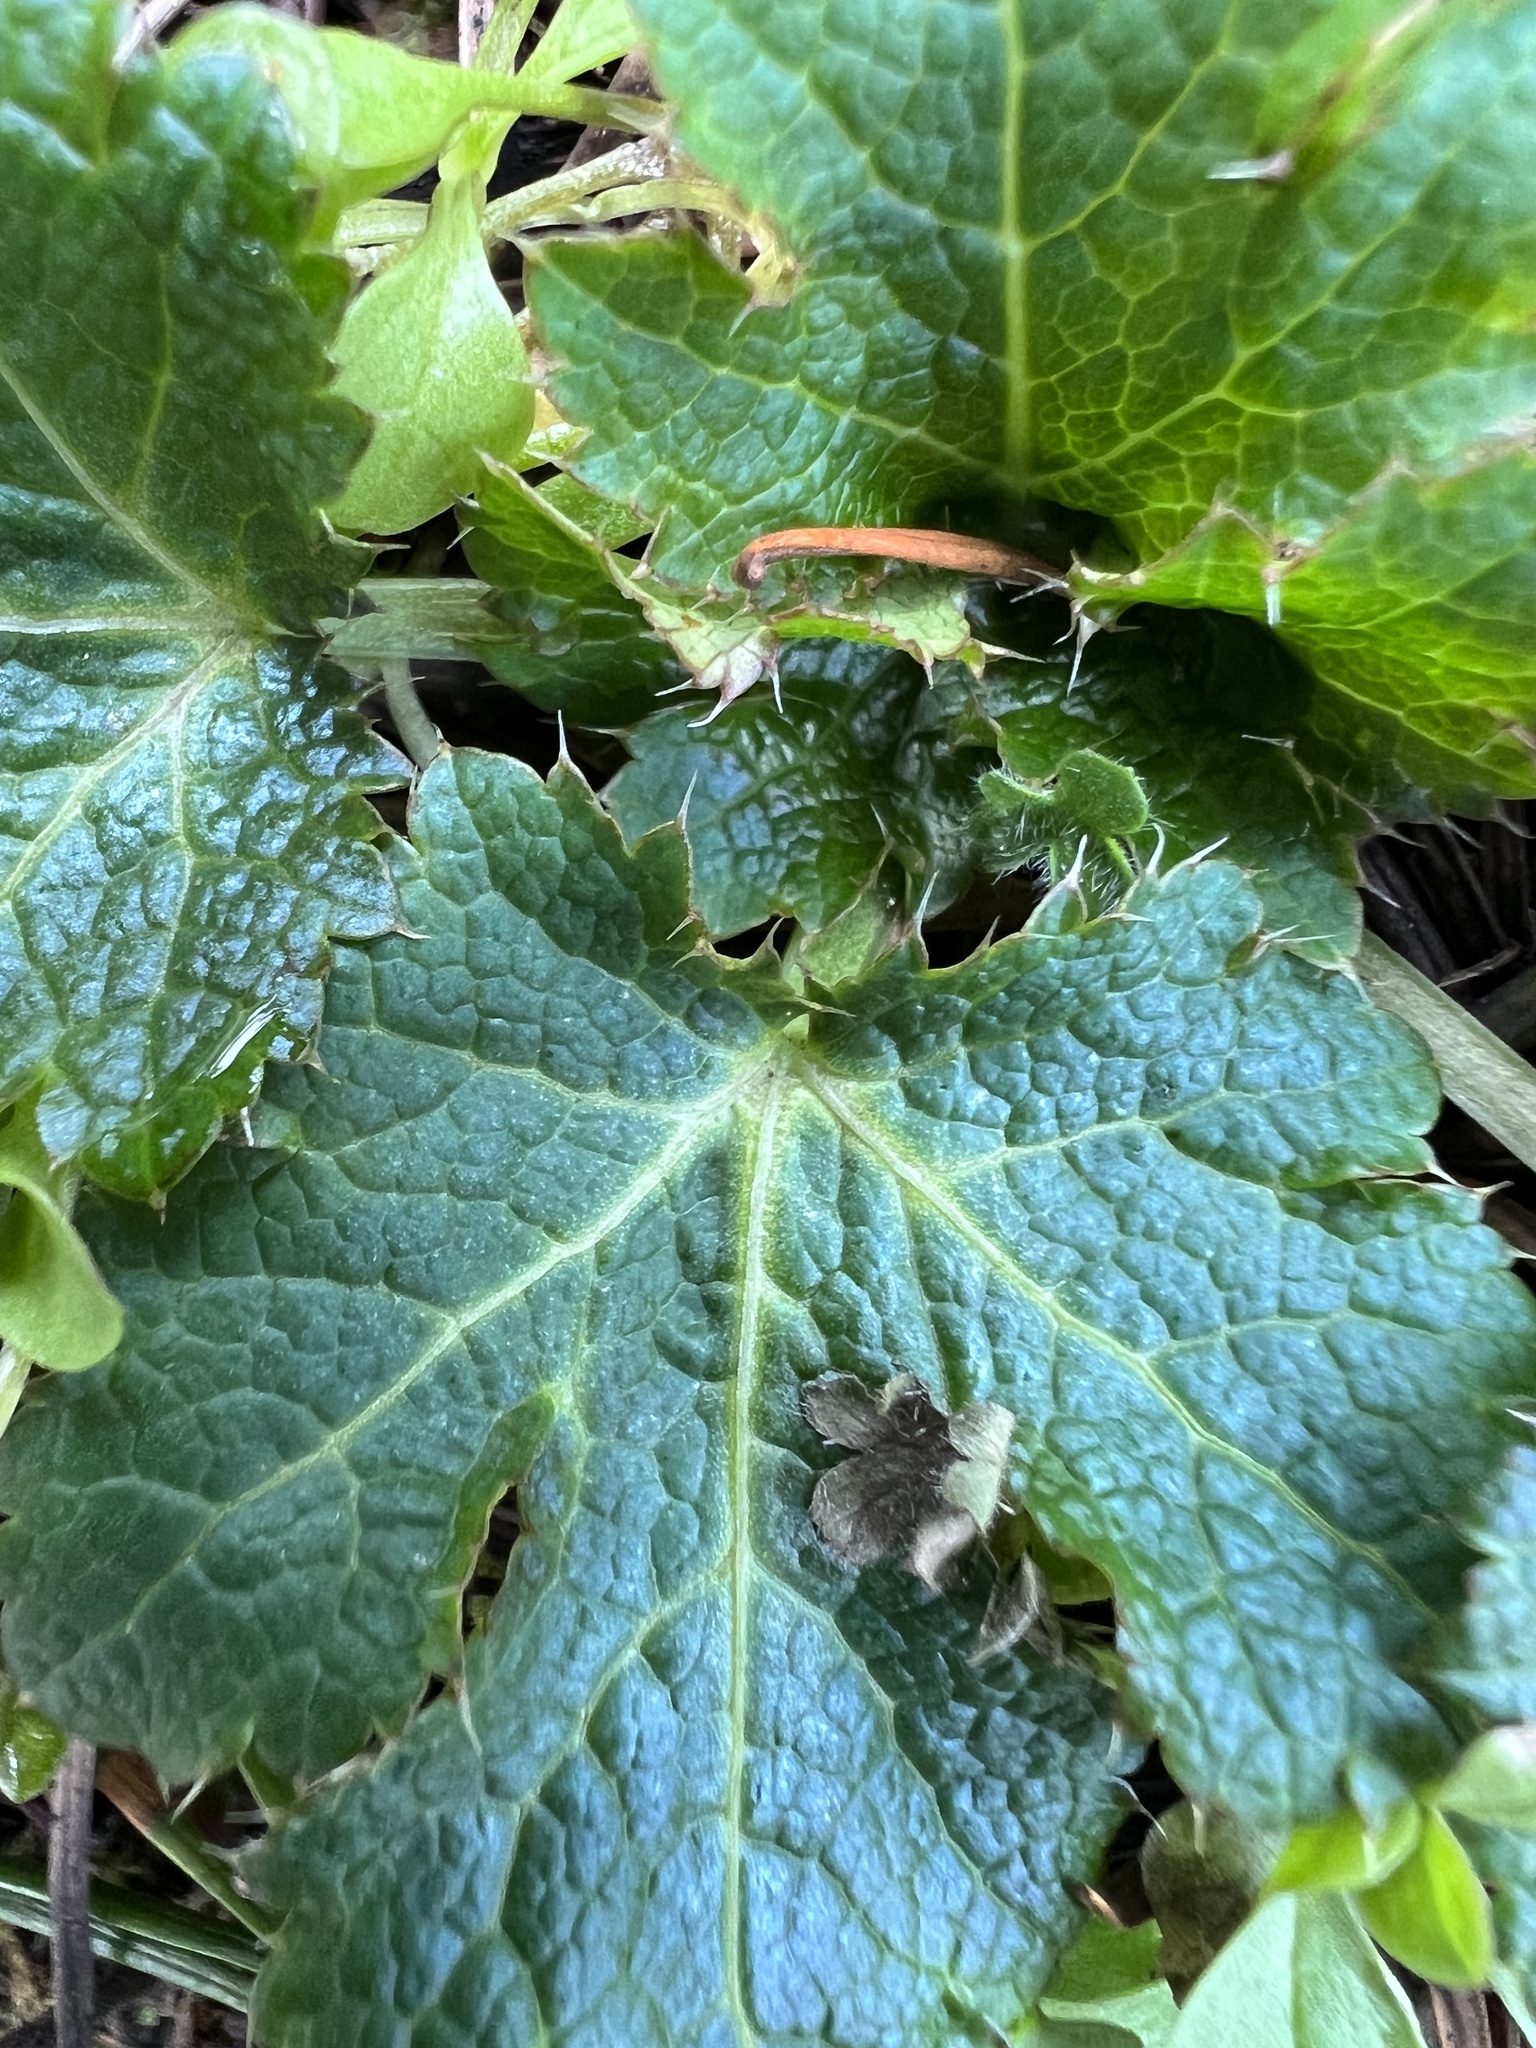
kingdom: Plantae
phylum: Tracheophyta
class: Magnoliopsida
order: Apiales
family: Apiaceae
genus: Sanicula
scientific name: Sanicula crassicaulis
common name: Western snakeroot
